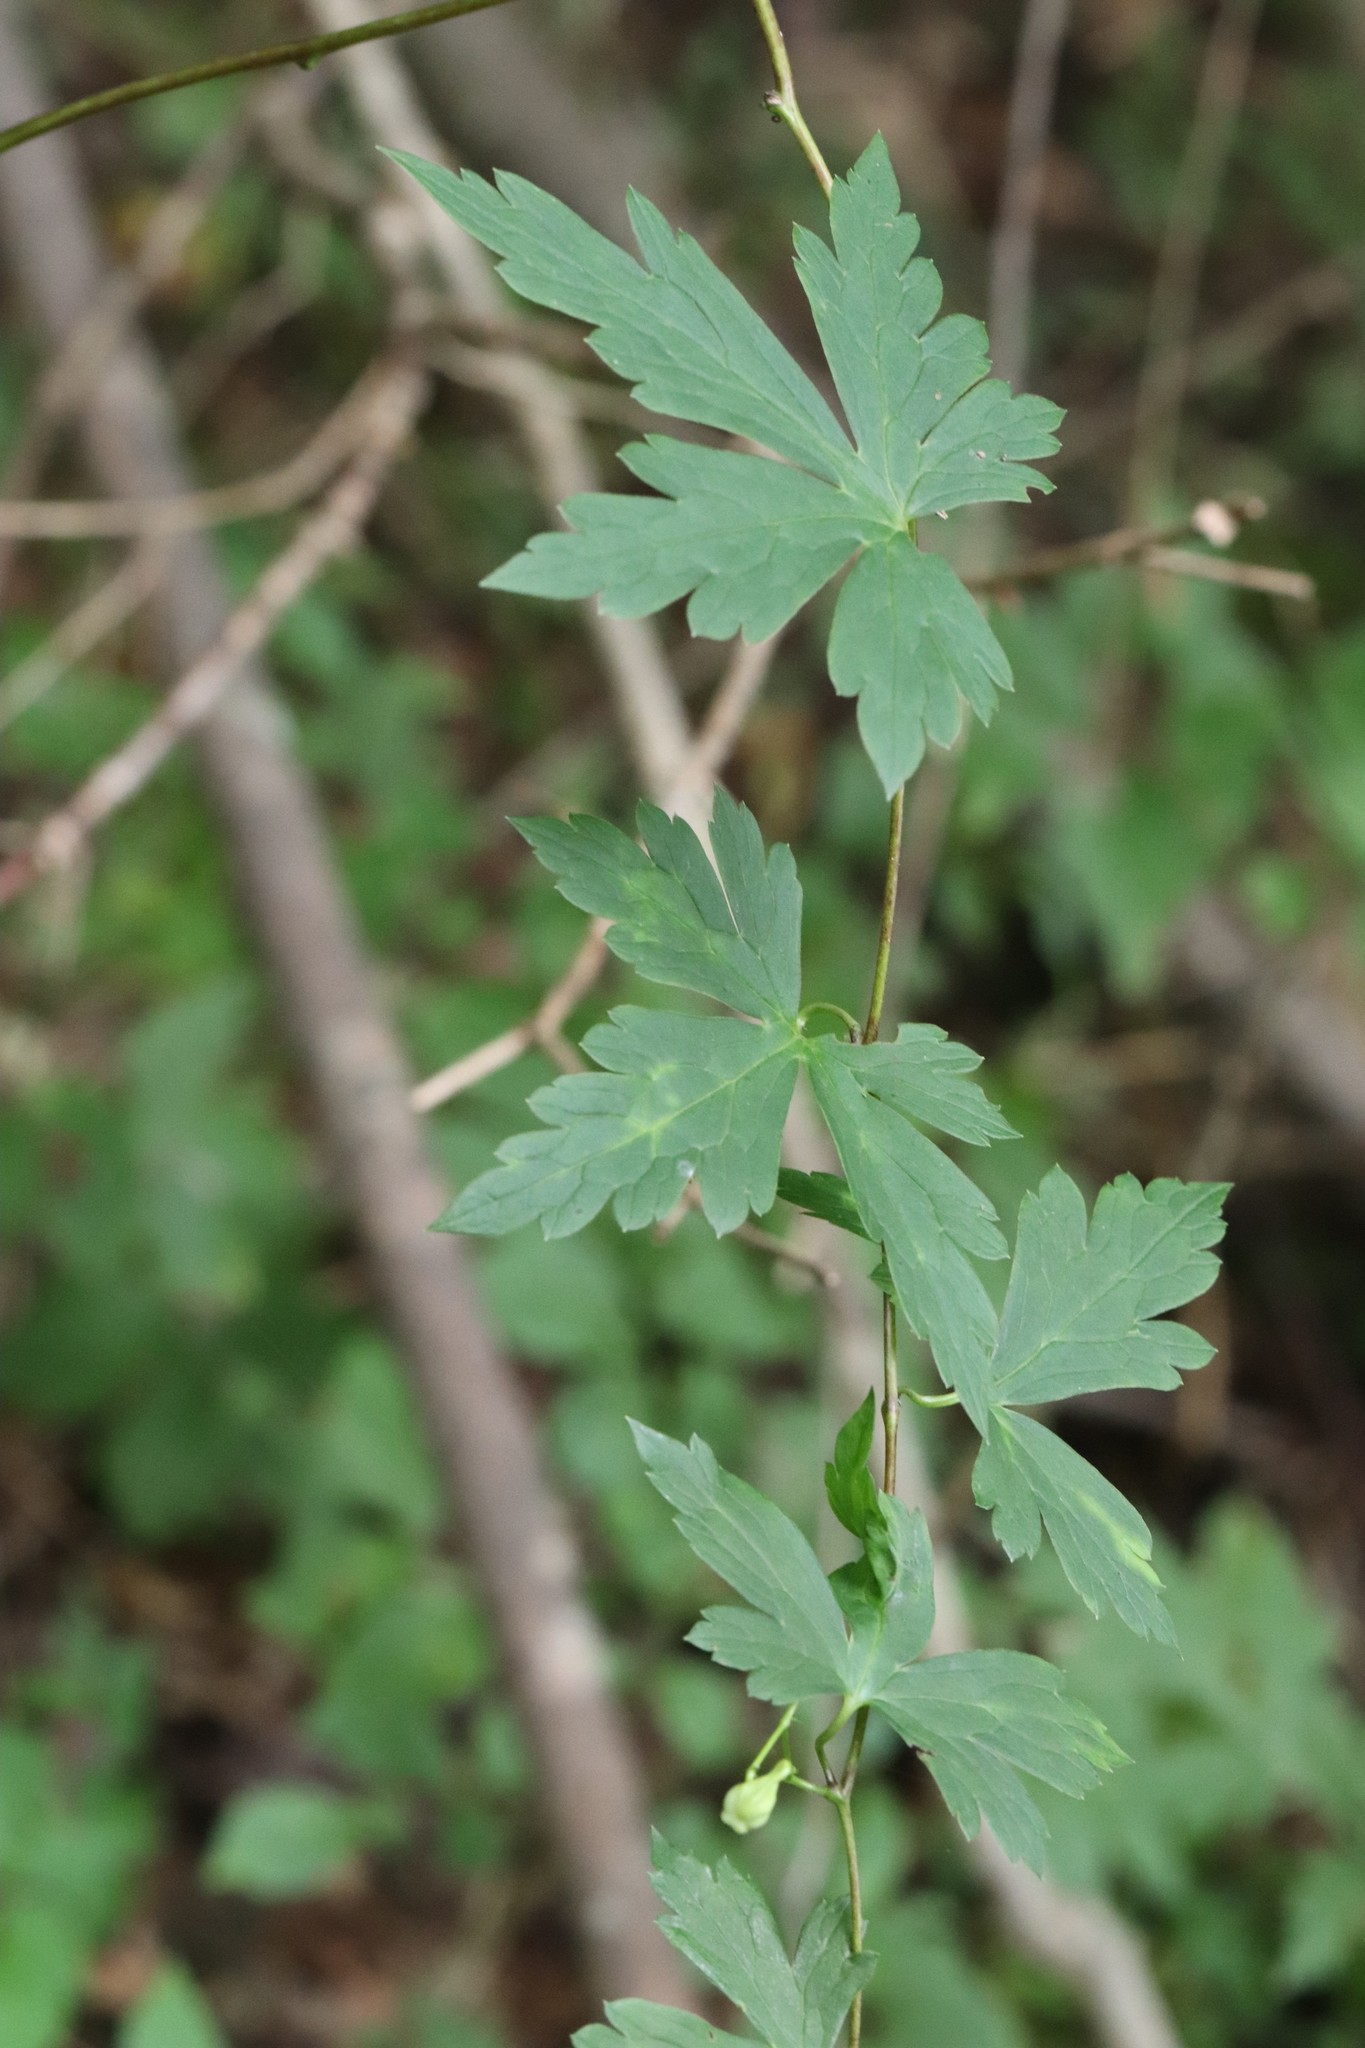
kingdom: Plantae
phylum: Tracheophyta
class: Magnoliopsida
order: Ranunculales
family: Ranunculaceae
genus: Aconitum
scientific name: Aconitum sczukinii
